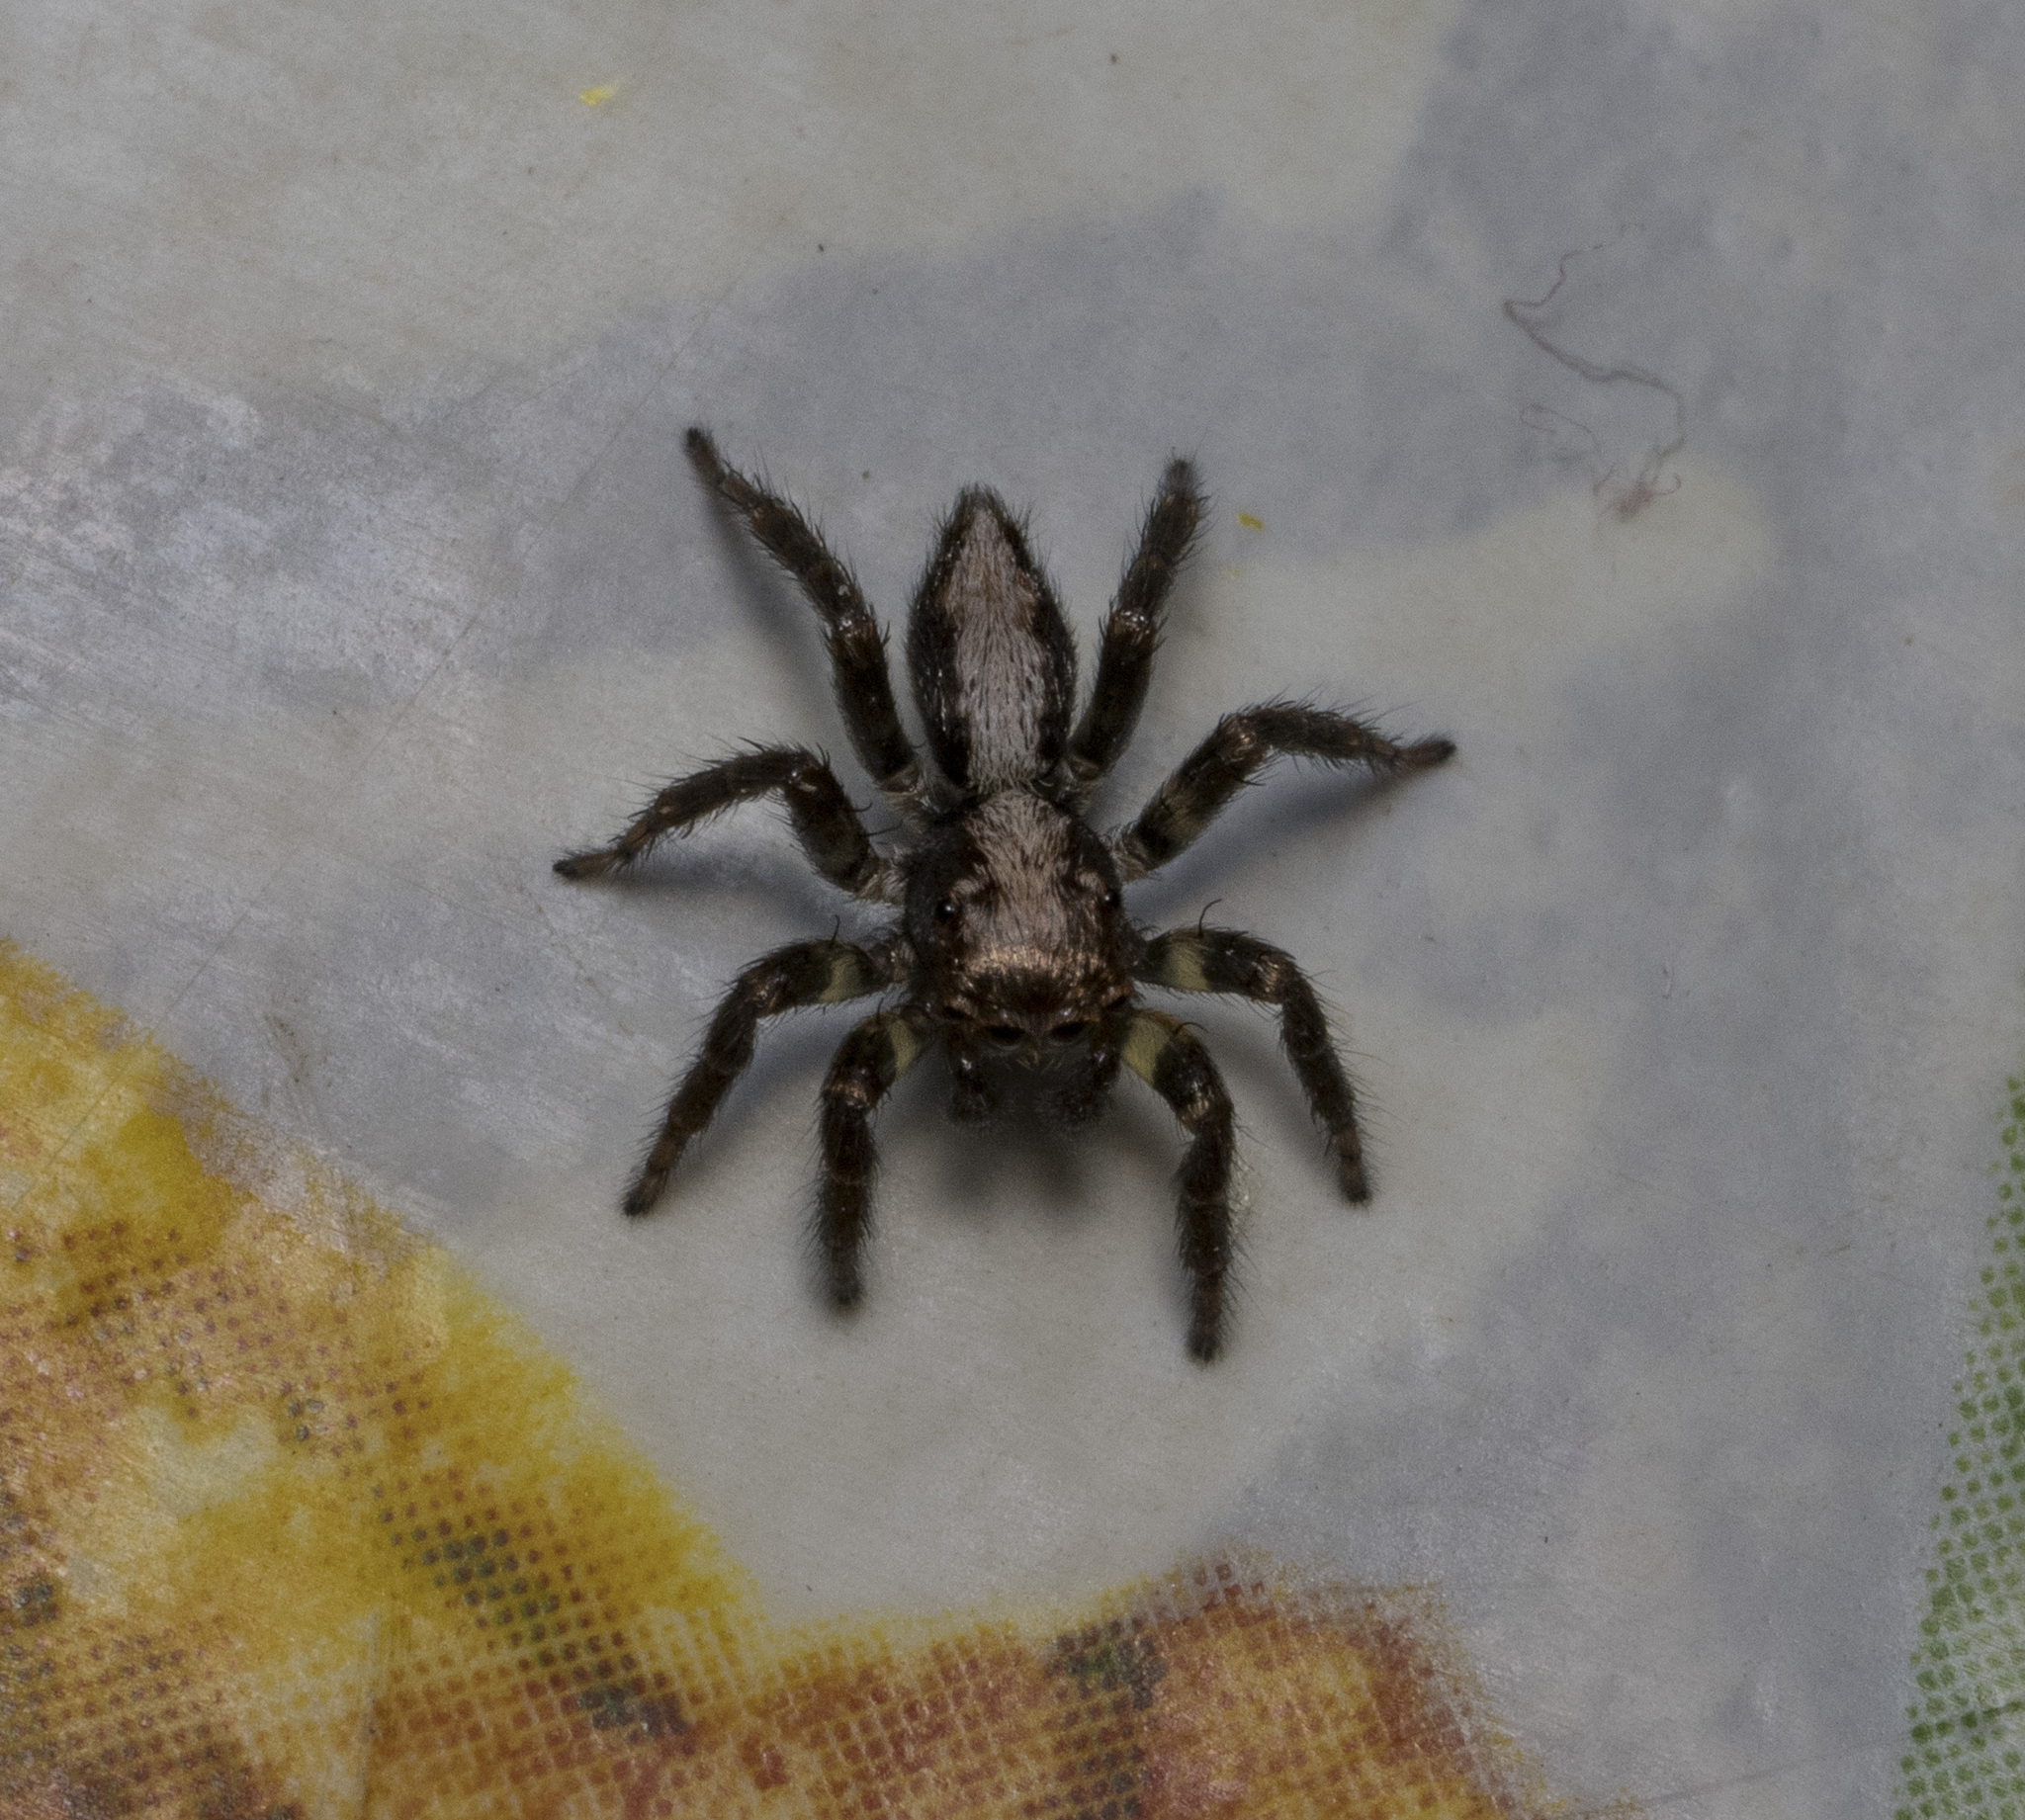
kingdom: Animalia
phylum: Arthropoda
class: Arachnida
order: Araneae
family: Salticidae
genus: Saphrys
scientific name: Saphrys rusticana
